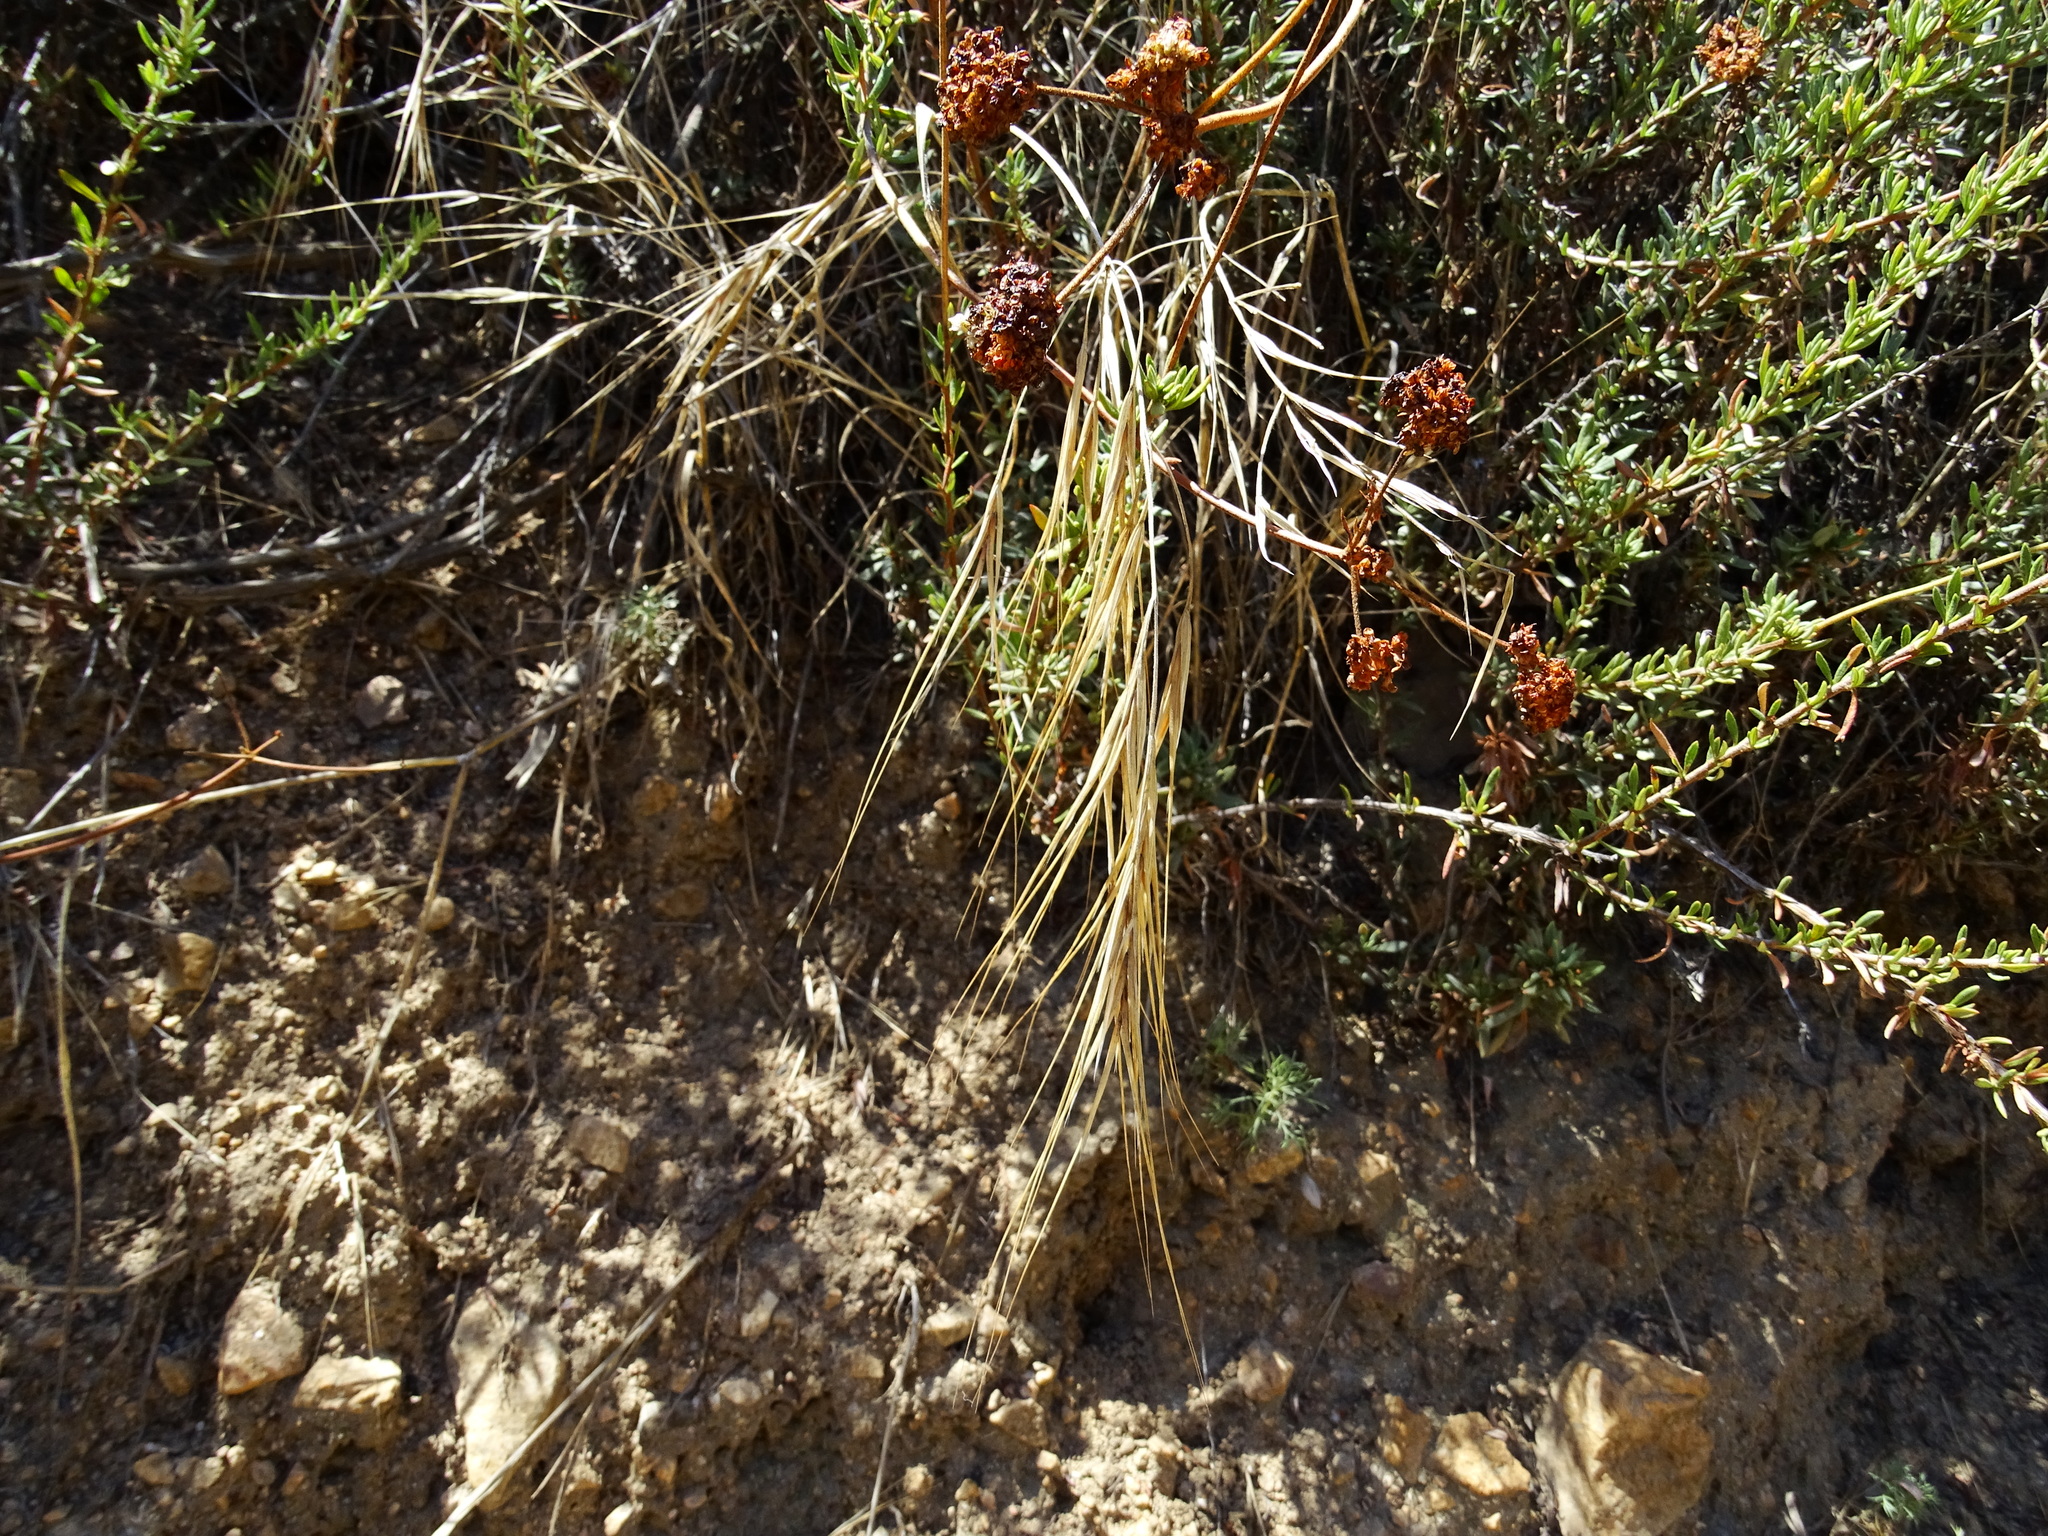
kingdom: Plantae
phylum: Tracheophyta
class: Liliopsida
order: Poales
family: Poaceae
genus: Bromus
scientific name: Bromus diandrus
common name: Ripgut brome
